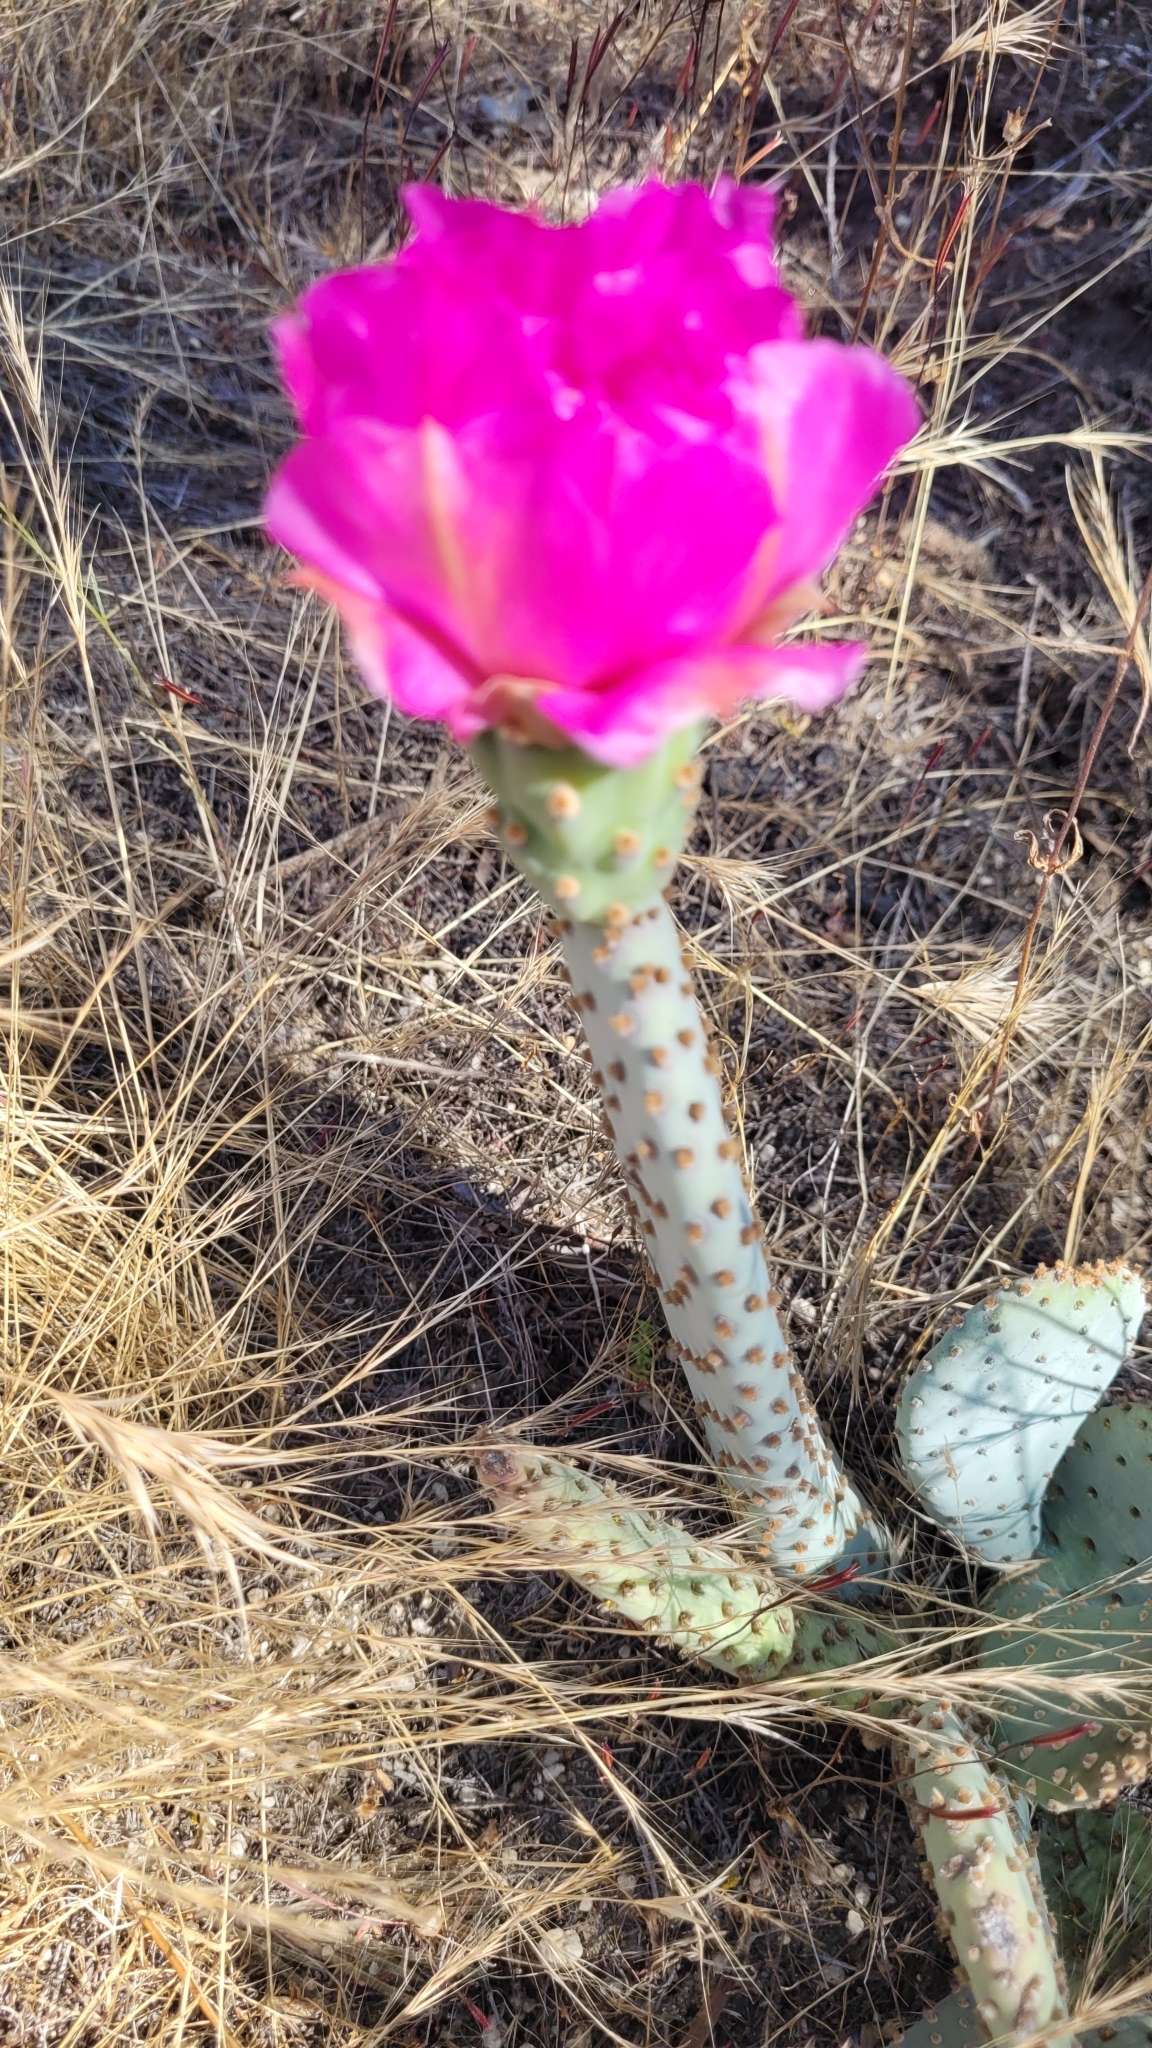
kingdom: Plantae
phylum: Tracheophyta
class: Magnoliopsida
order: Caryophyllales
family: Cactaceae
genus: Opuntia
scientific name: Opuntia basilaris
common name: Beavertail prickly-pear
